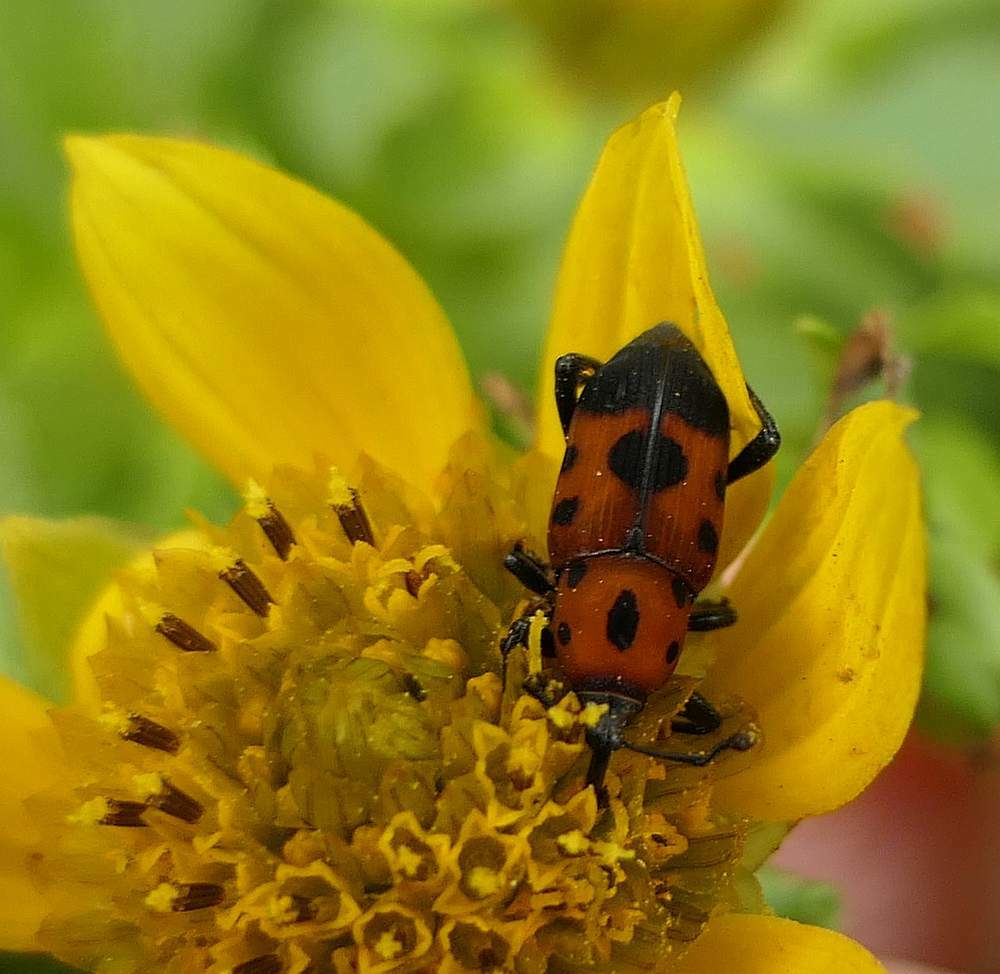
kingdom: Animalia
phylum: Arthropoda
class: Insecta
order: Coleoptera
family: Dryophthoridae
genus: Rhodobaenus
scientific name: Rhodobaenus quinquepunctatus
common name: Cocklebur weevil
